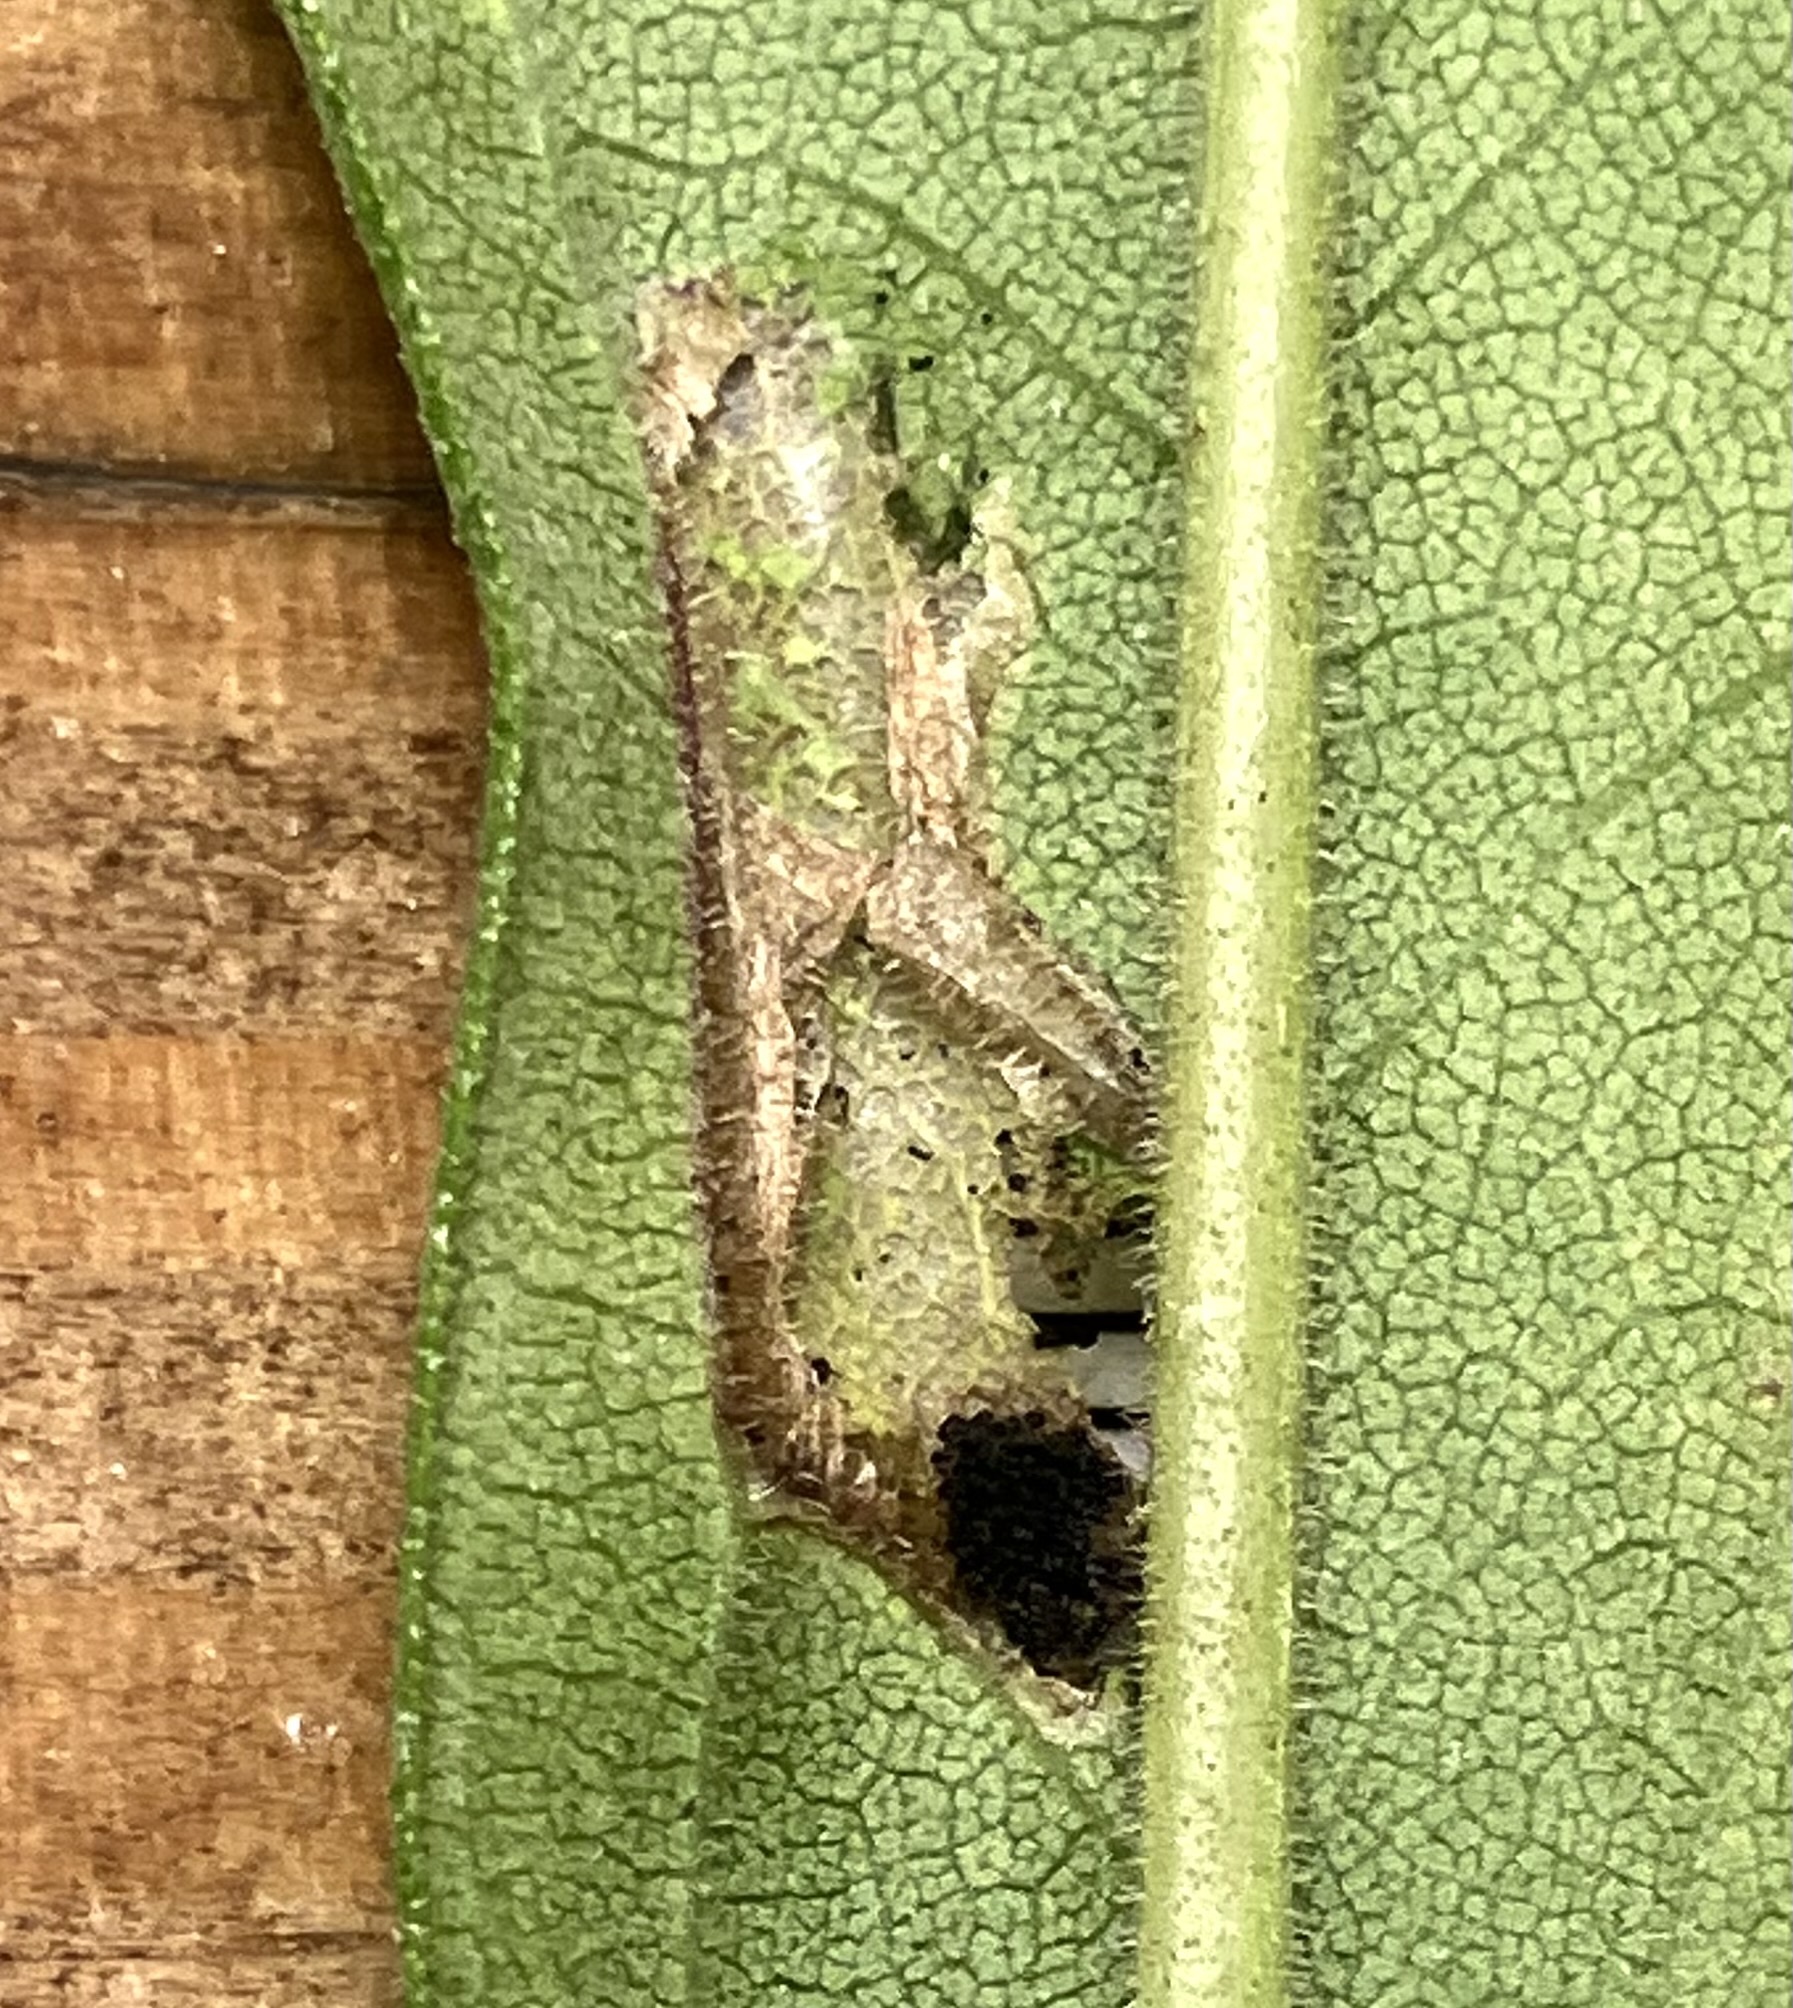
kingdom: Animalia
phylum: Arthropoda
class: Insecta
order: Lepidoptera
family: Gracillariidae
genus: Cremastobombycia
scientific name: Cremastobombycia solidaginis
